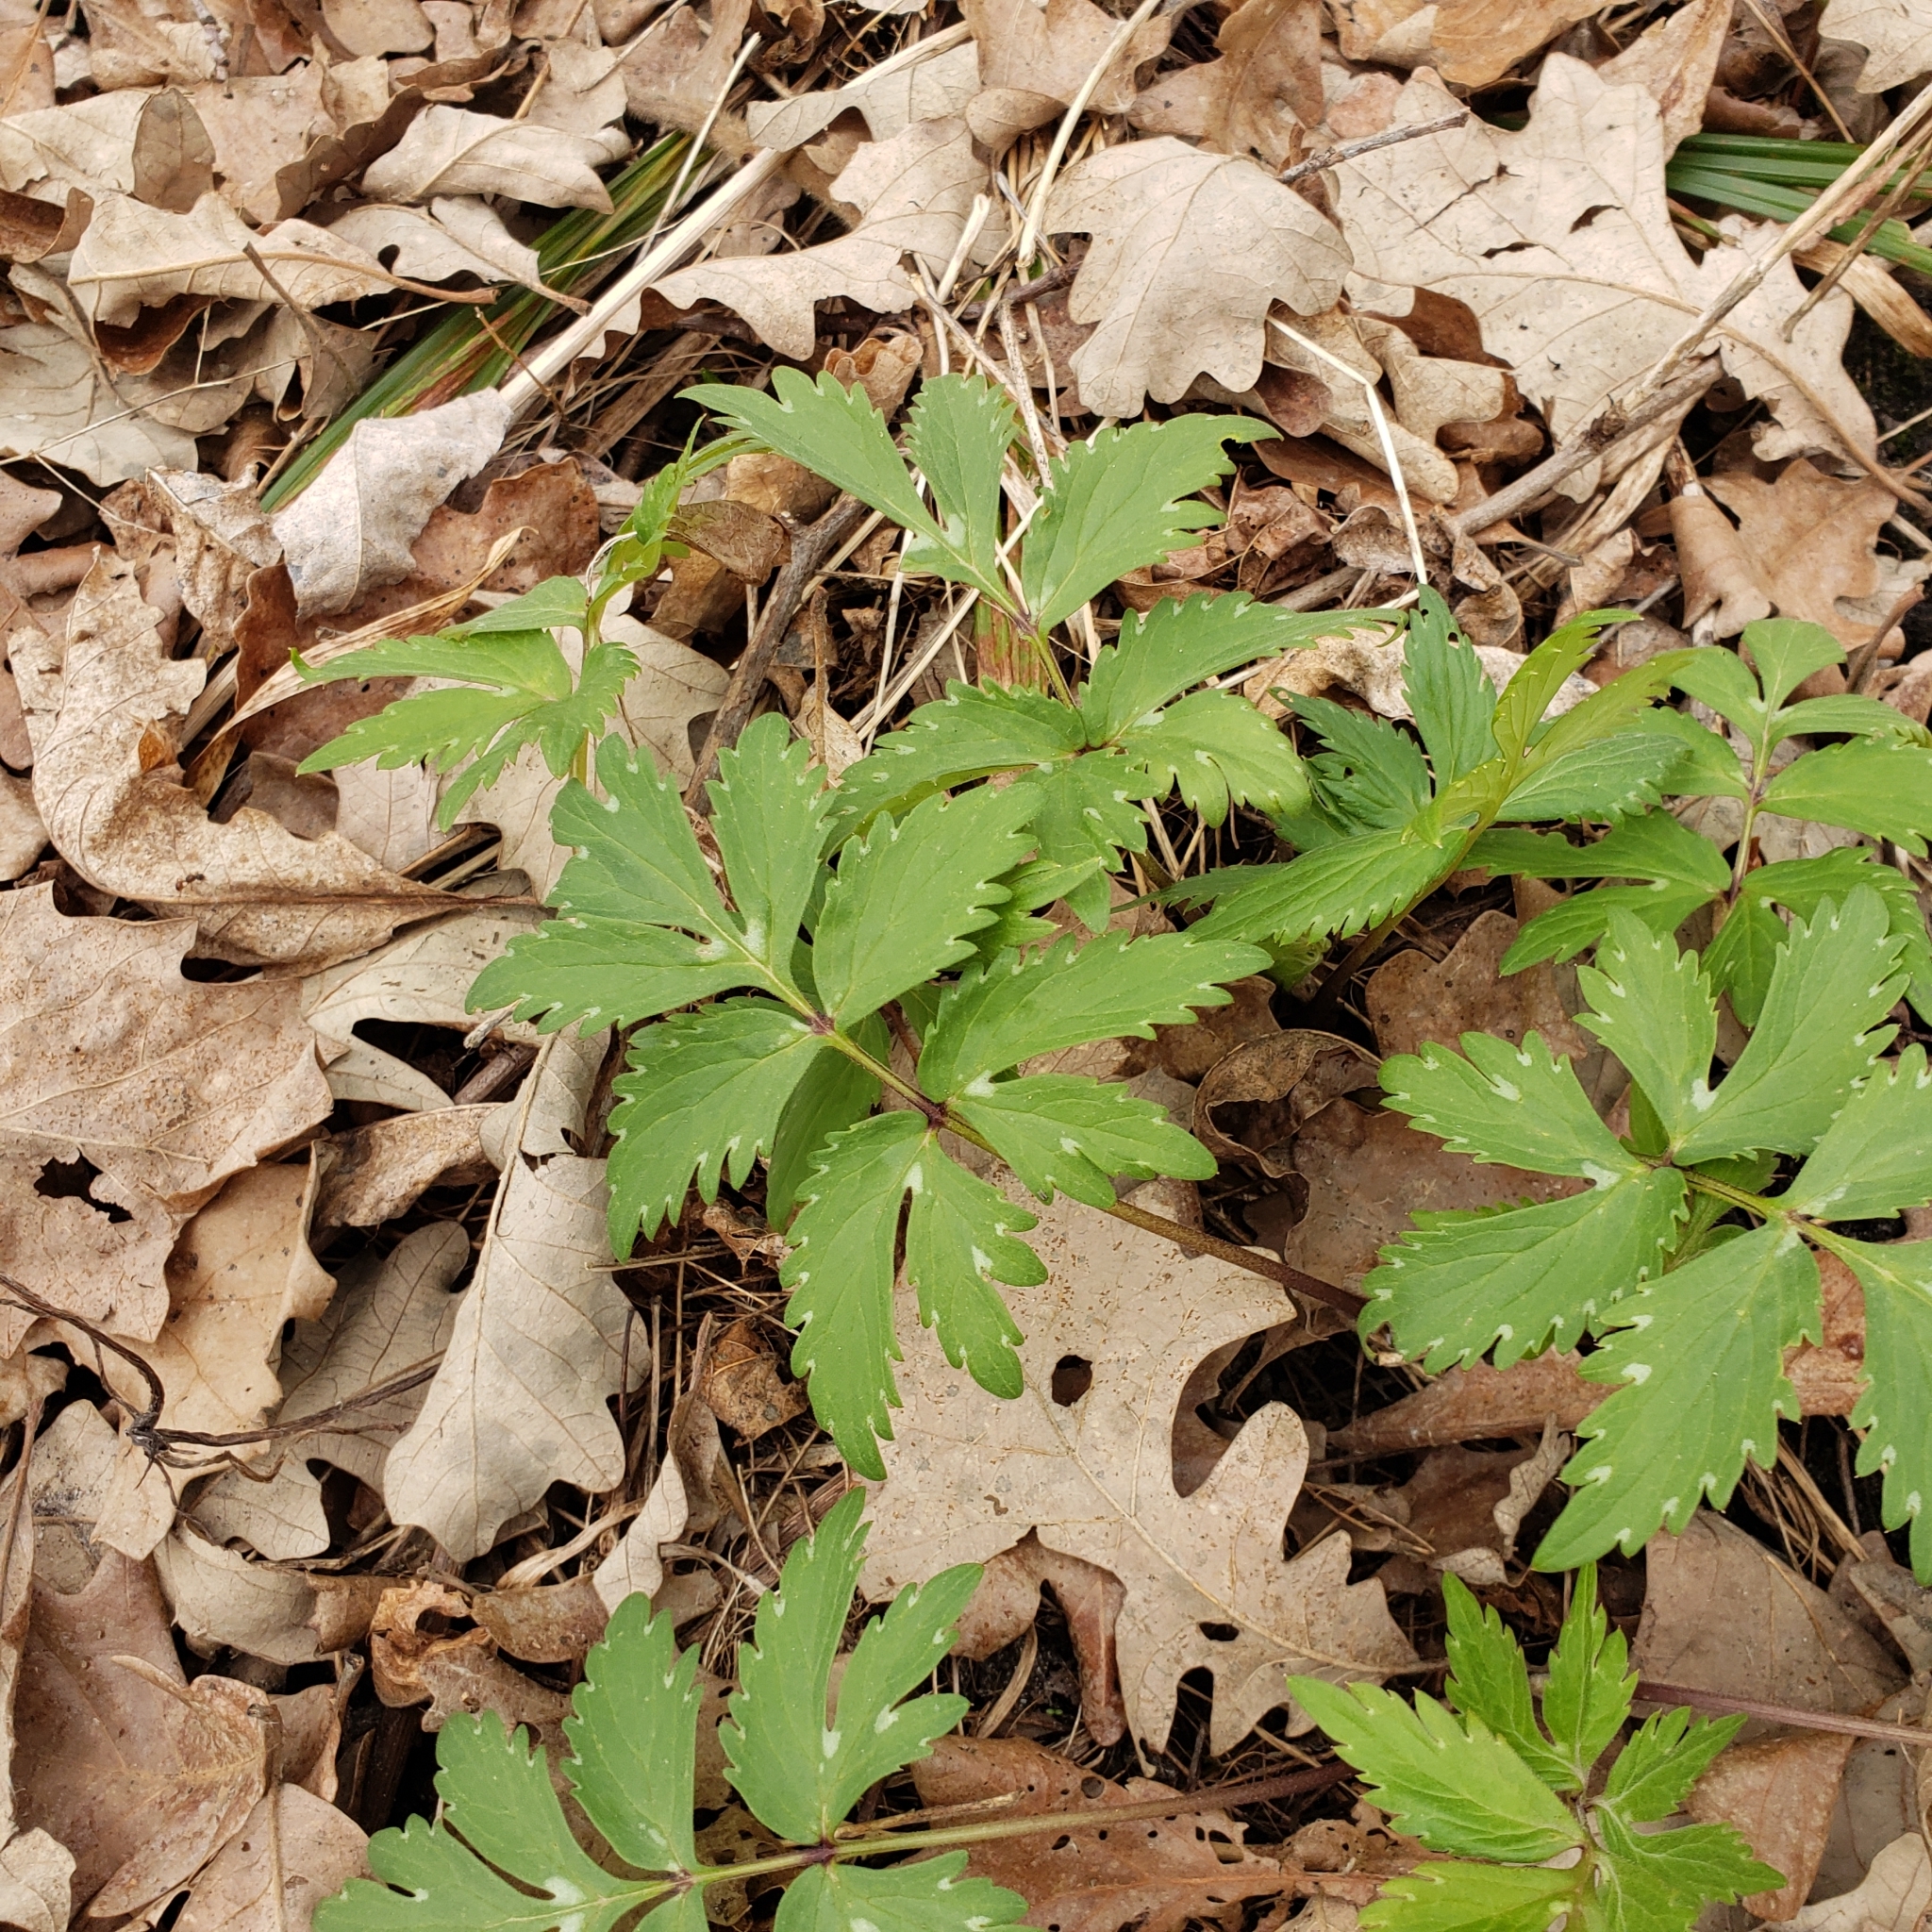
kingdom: Plantae
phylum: Tracheophyta
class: Magnoliopsida
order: Boraginales
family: Hydrophyllaceae
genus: Hydrophyllum
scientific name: Hydrophyllum virginianum
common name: Virginia waterleaf
